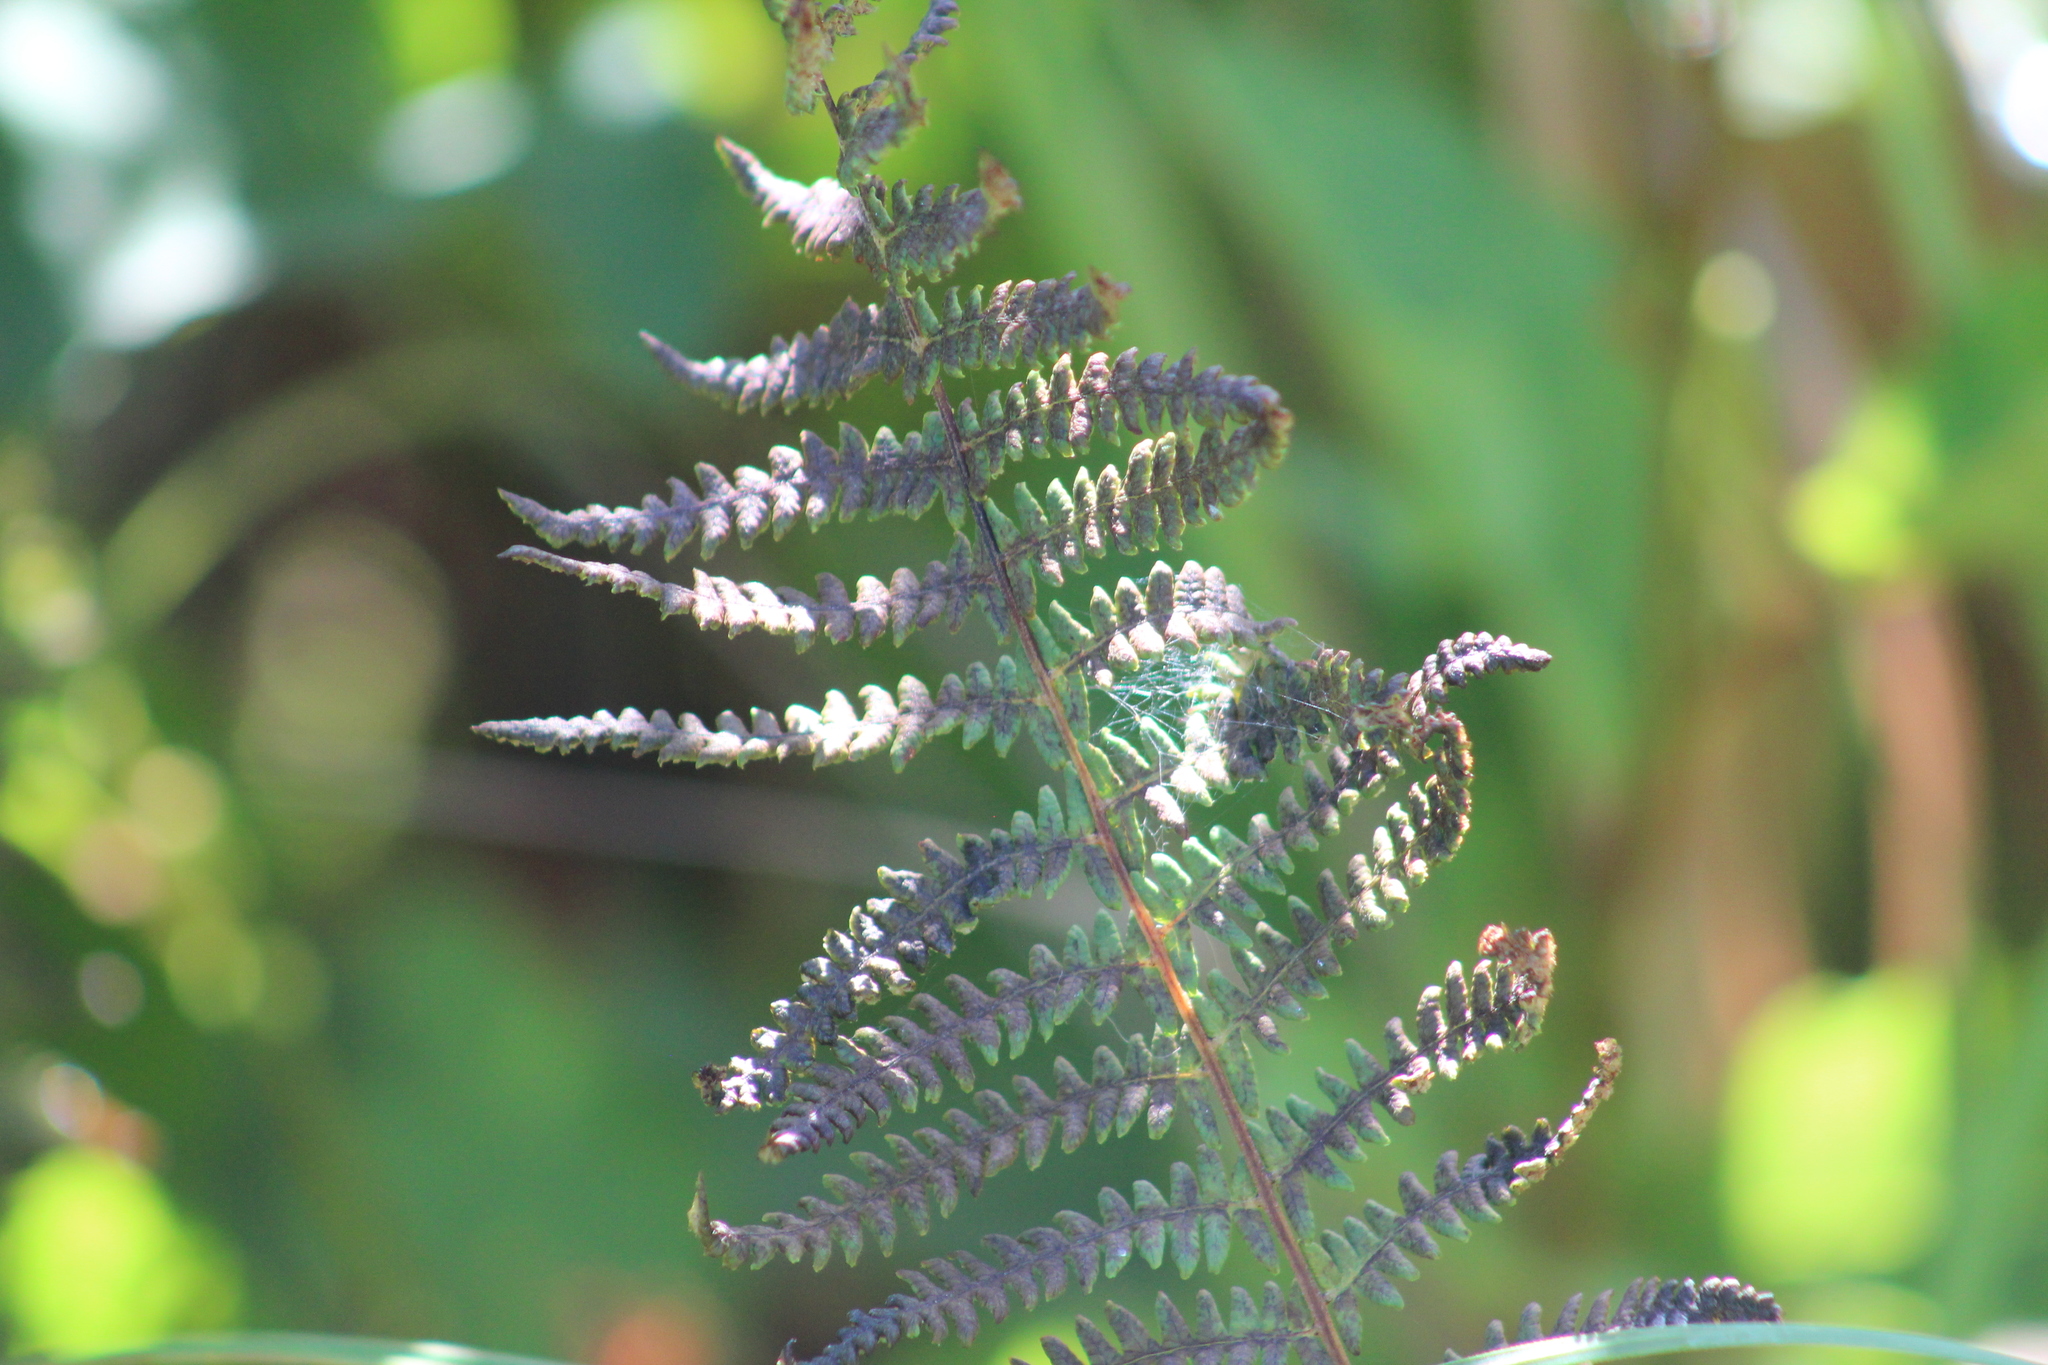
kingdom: Plantae
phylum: Tracheophyta
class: Polypodiopsida
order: Polypodiales
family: Thelypteridaceae
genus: Thelypteris
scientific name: Thelypteris palustris
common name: Marsh fern
